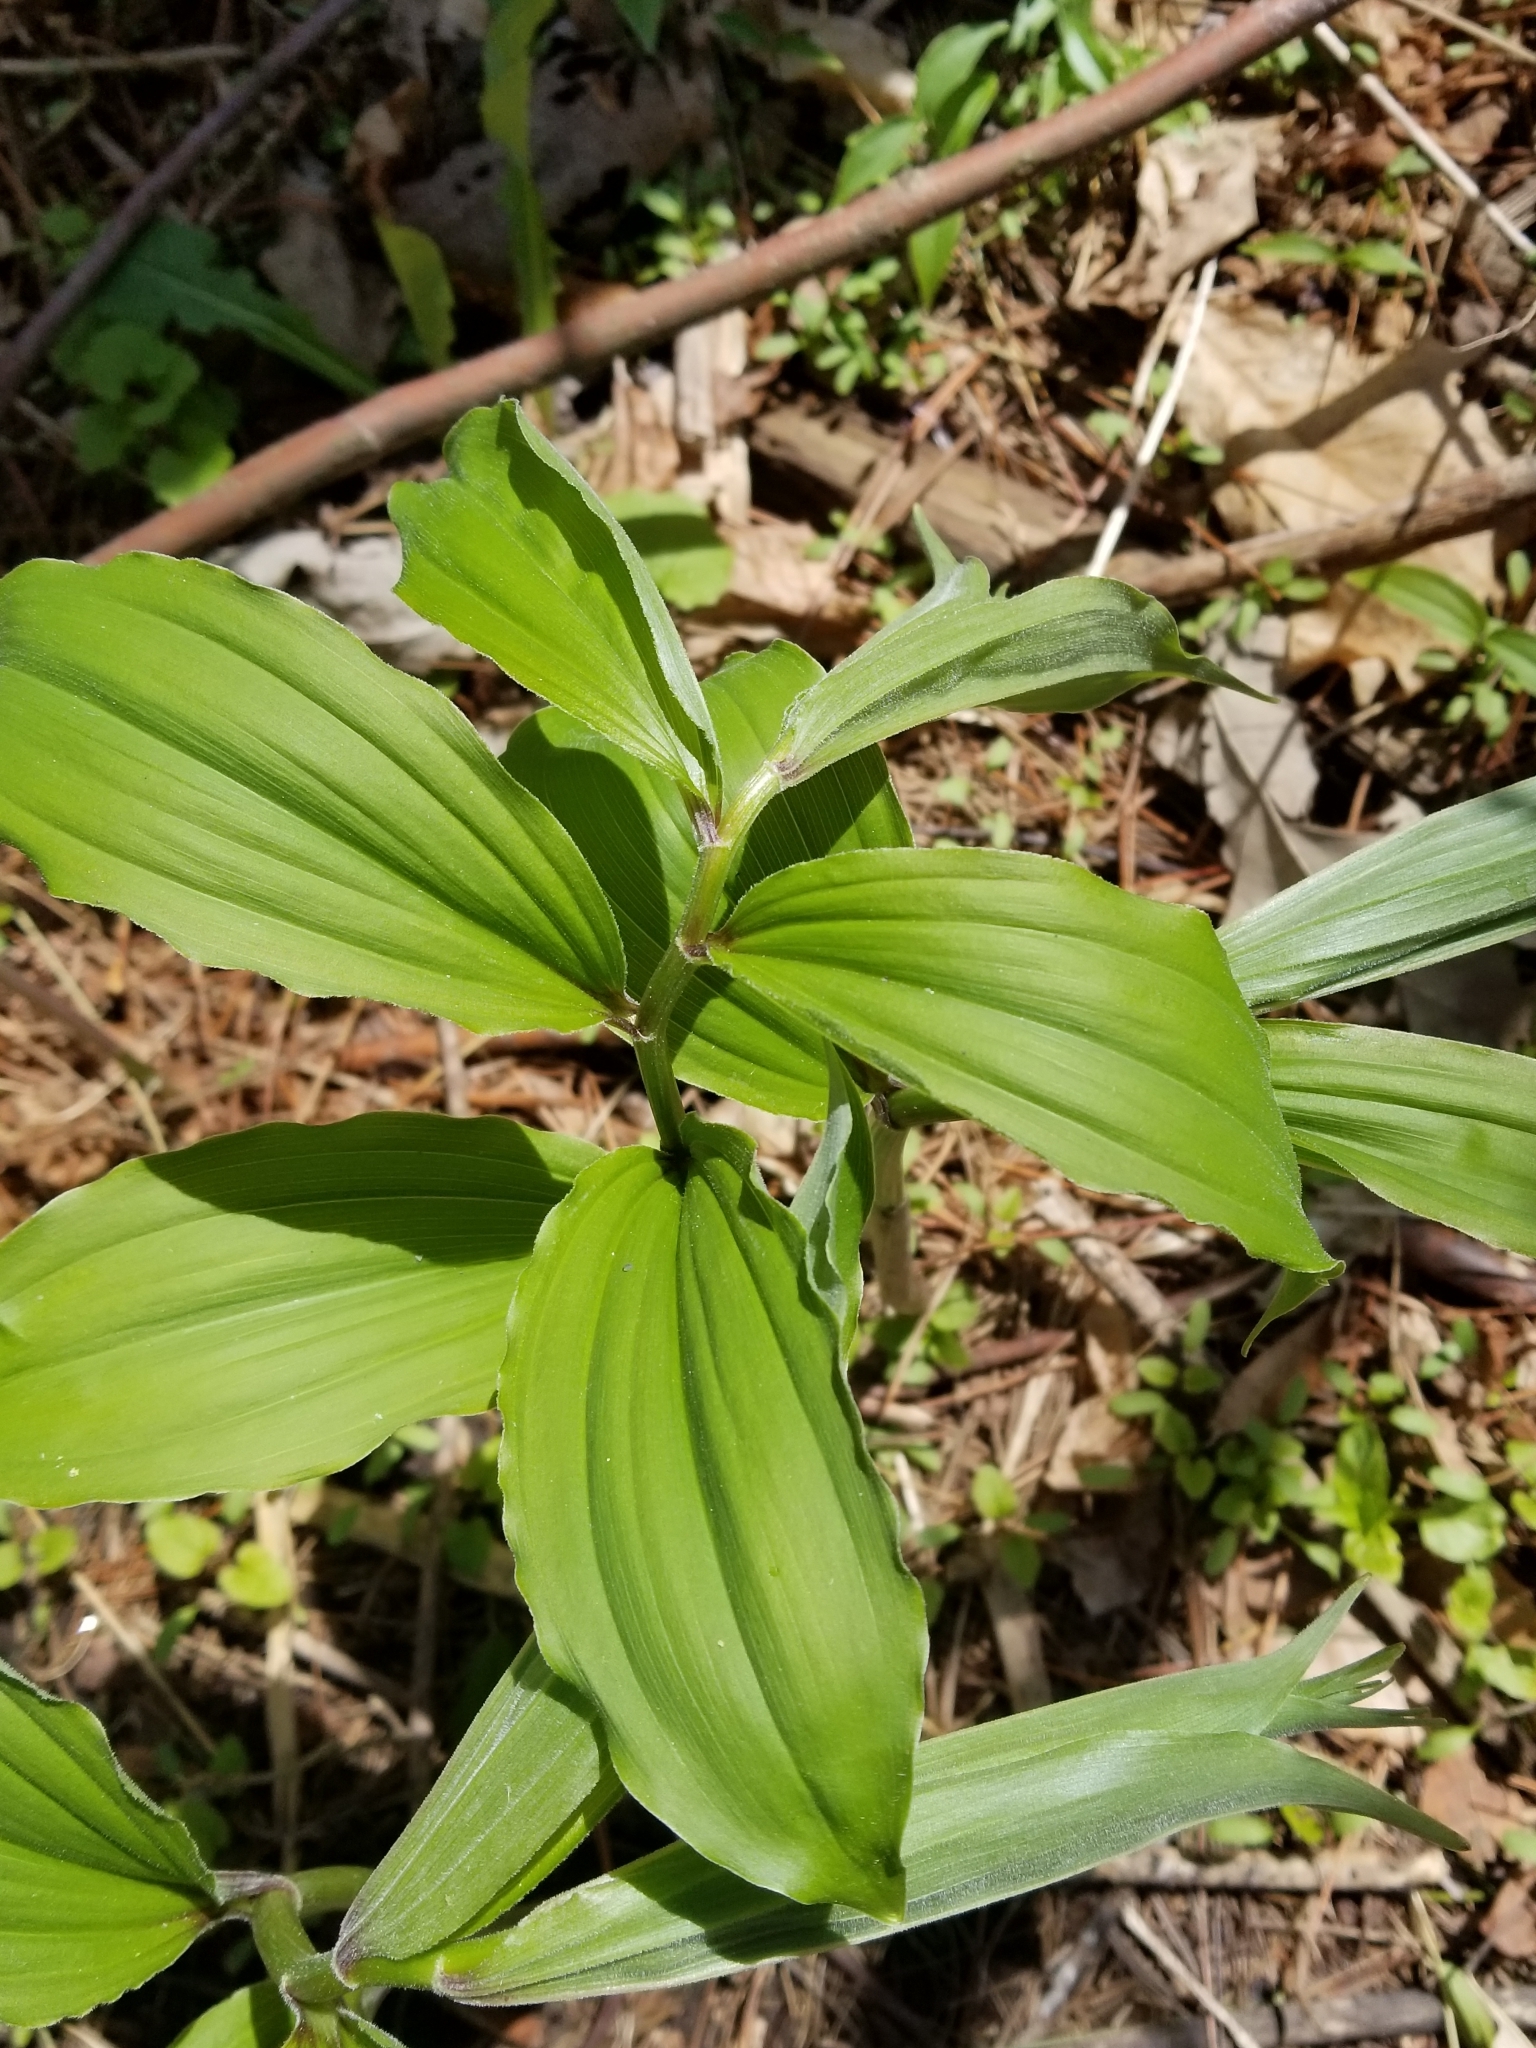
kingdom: Plantae
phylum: Tracheophyta
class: Liliopsida
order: Asparagales
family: Asparagaceae
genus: Maianthemum
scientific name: Maianthemum racemosum
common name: False spikenard
